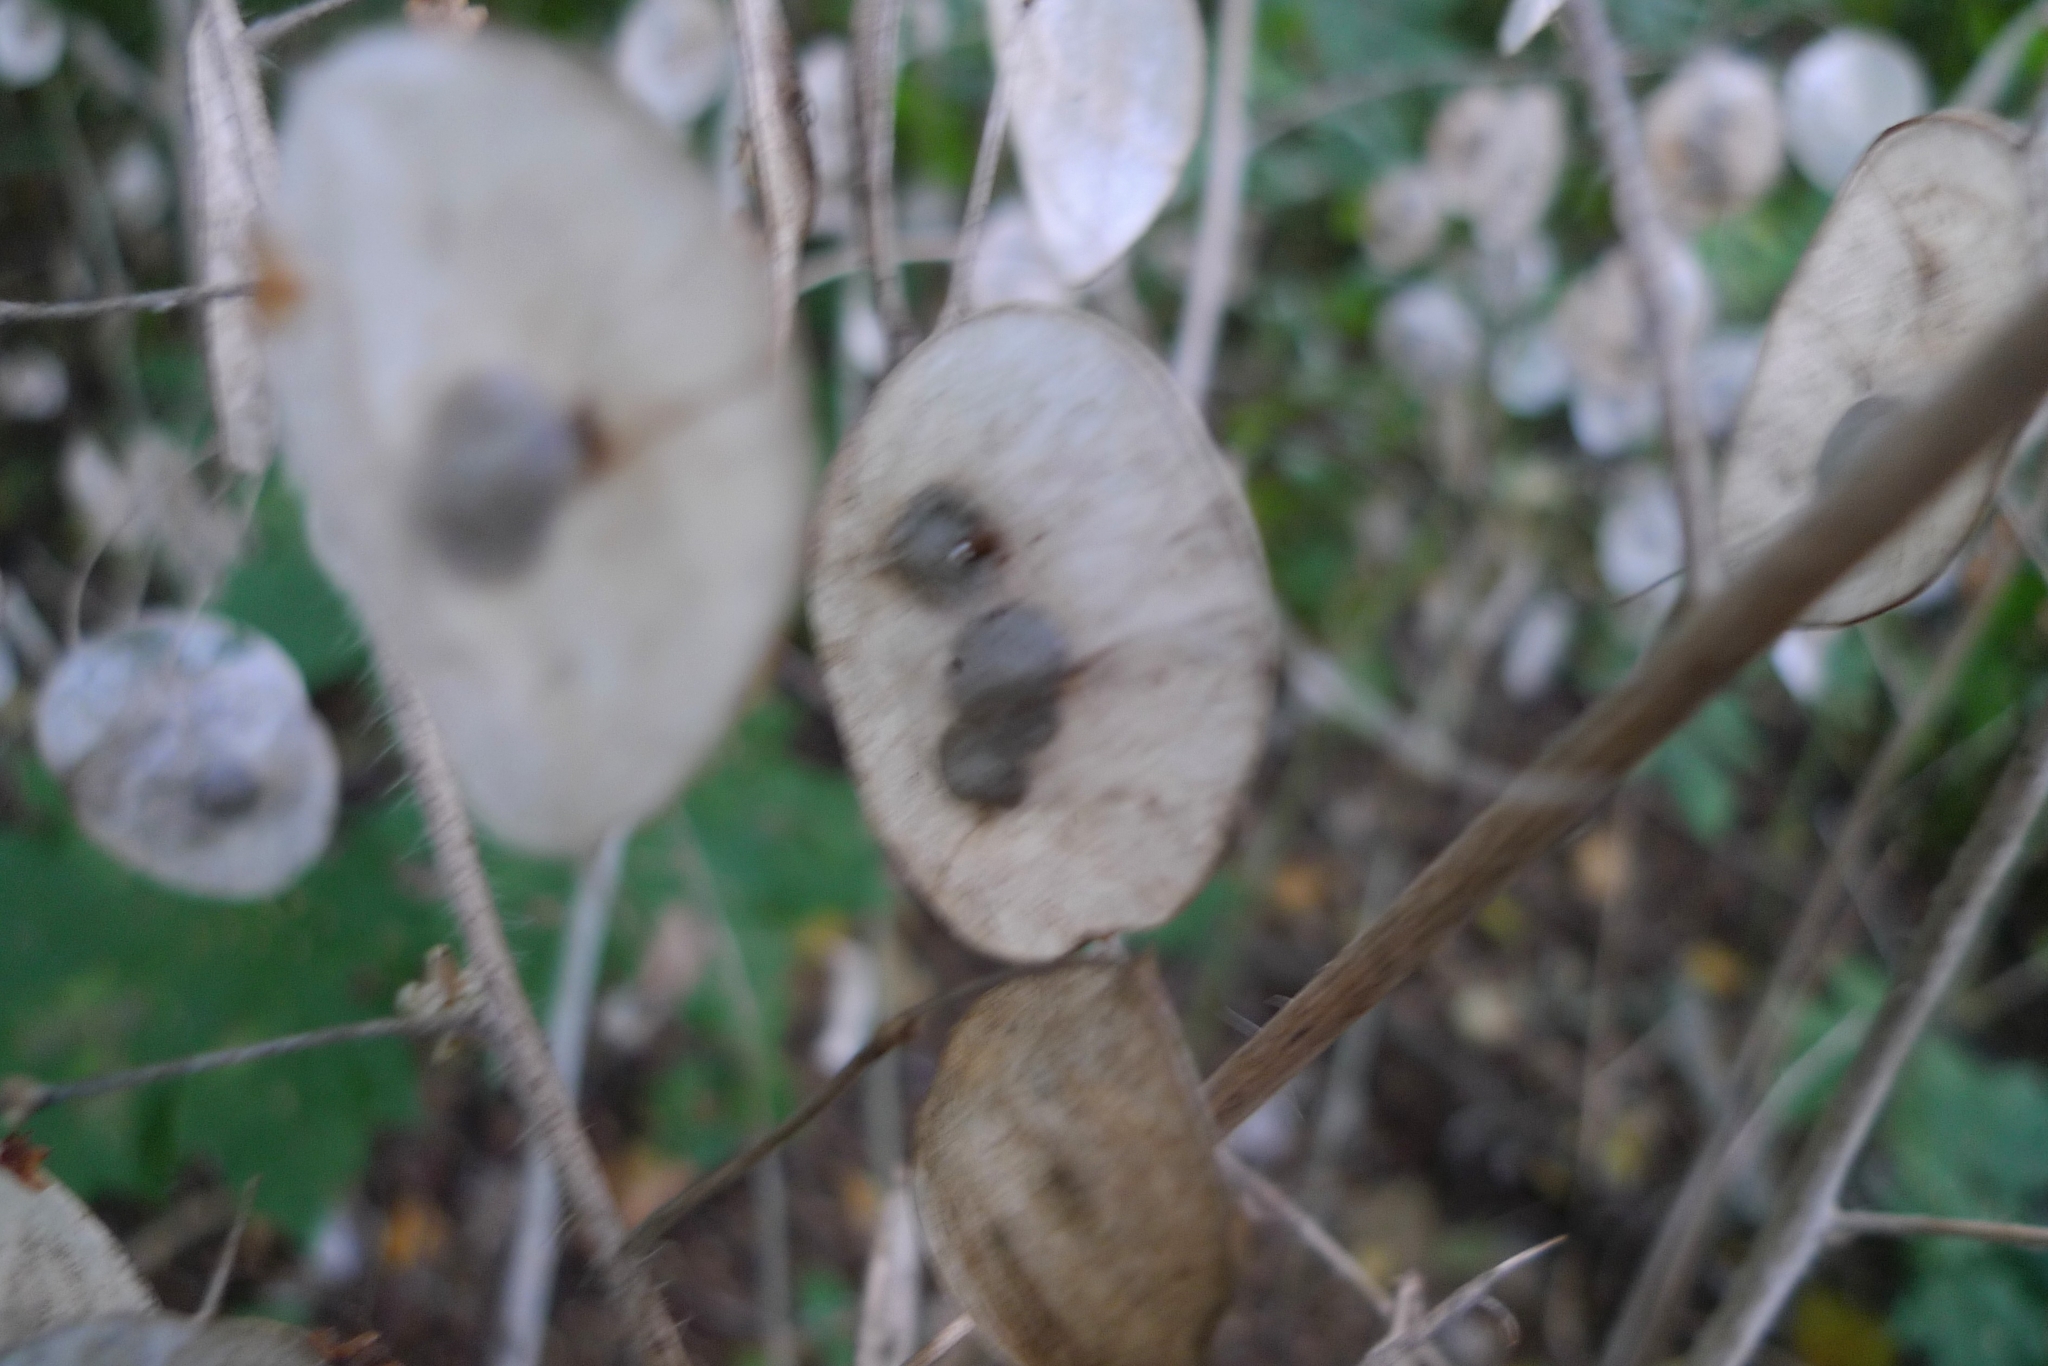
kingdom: Plantae
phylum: Tracheophyta
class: Magnoliopsida
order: Brassicales
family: Brassicaceae
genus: Lunaria
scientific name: Lunaria annua
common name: Honesty
